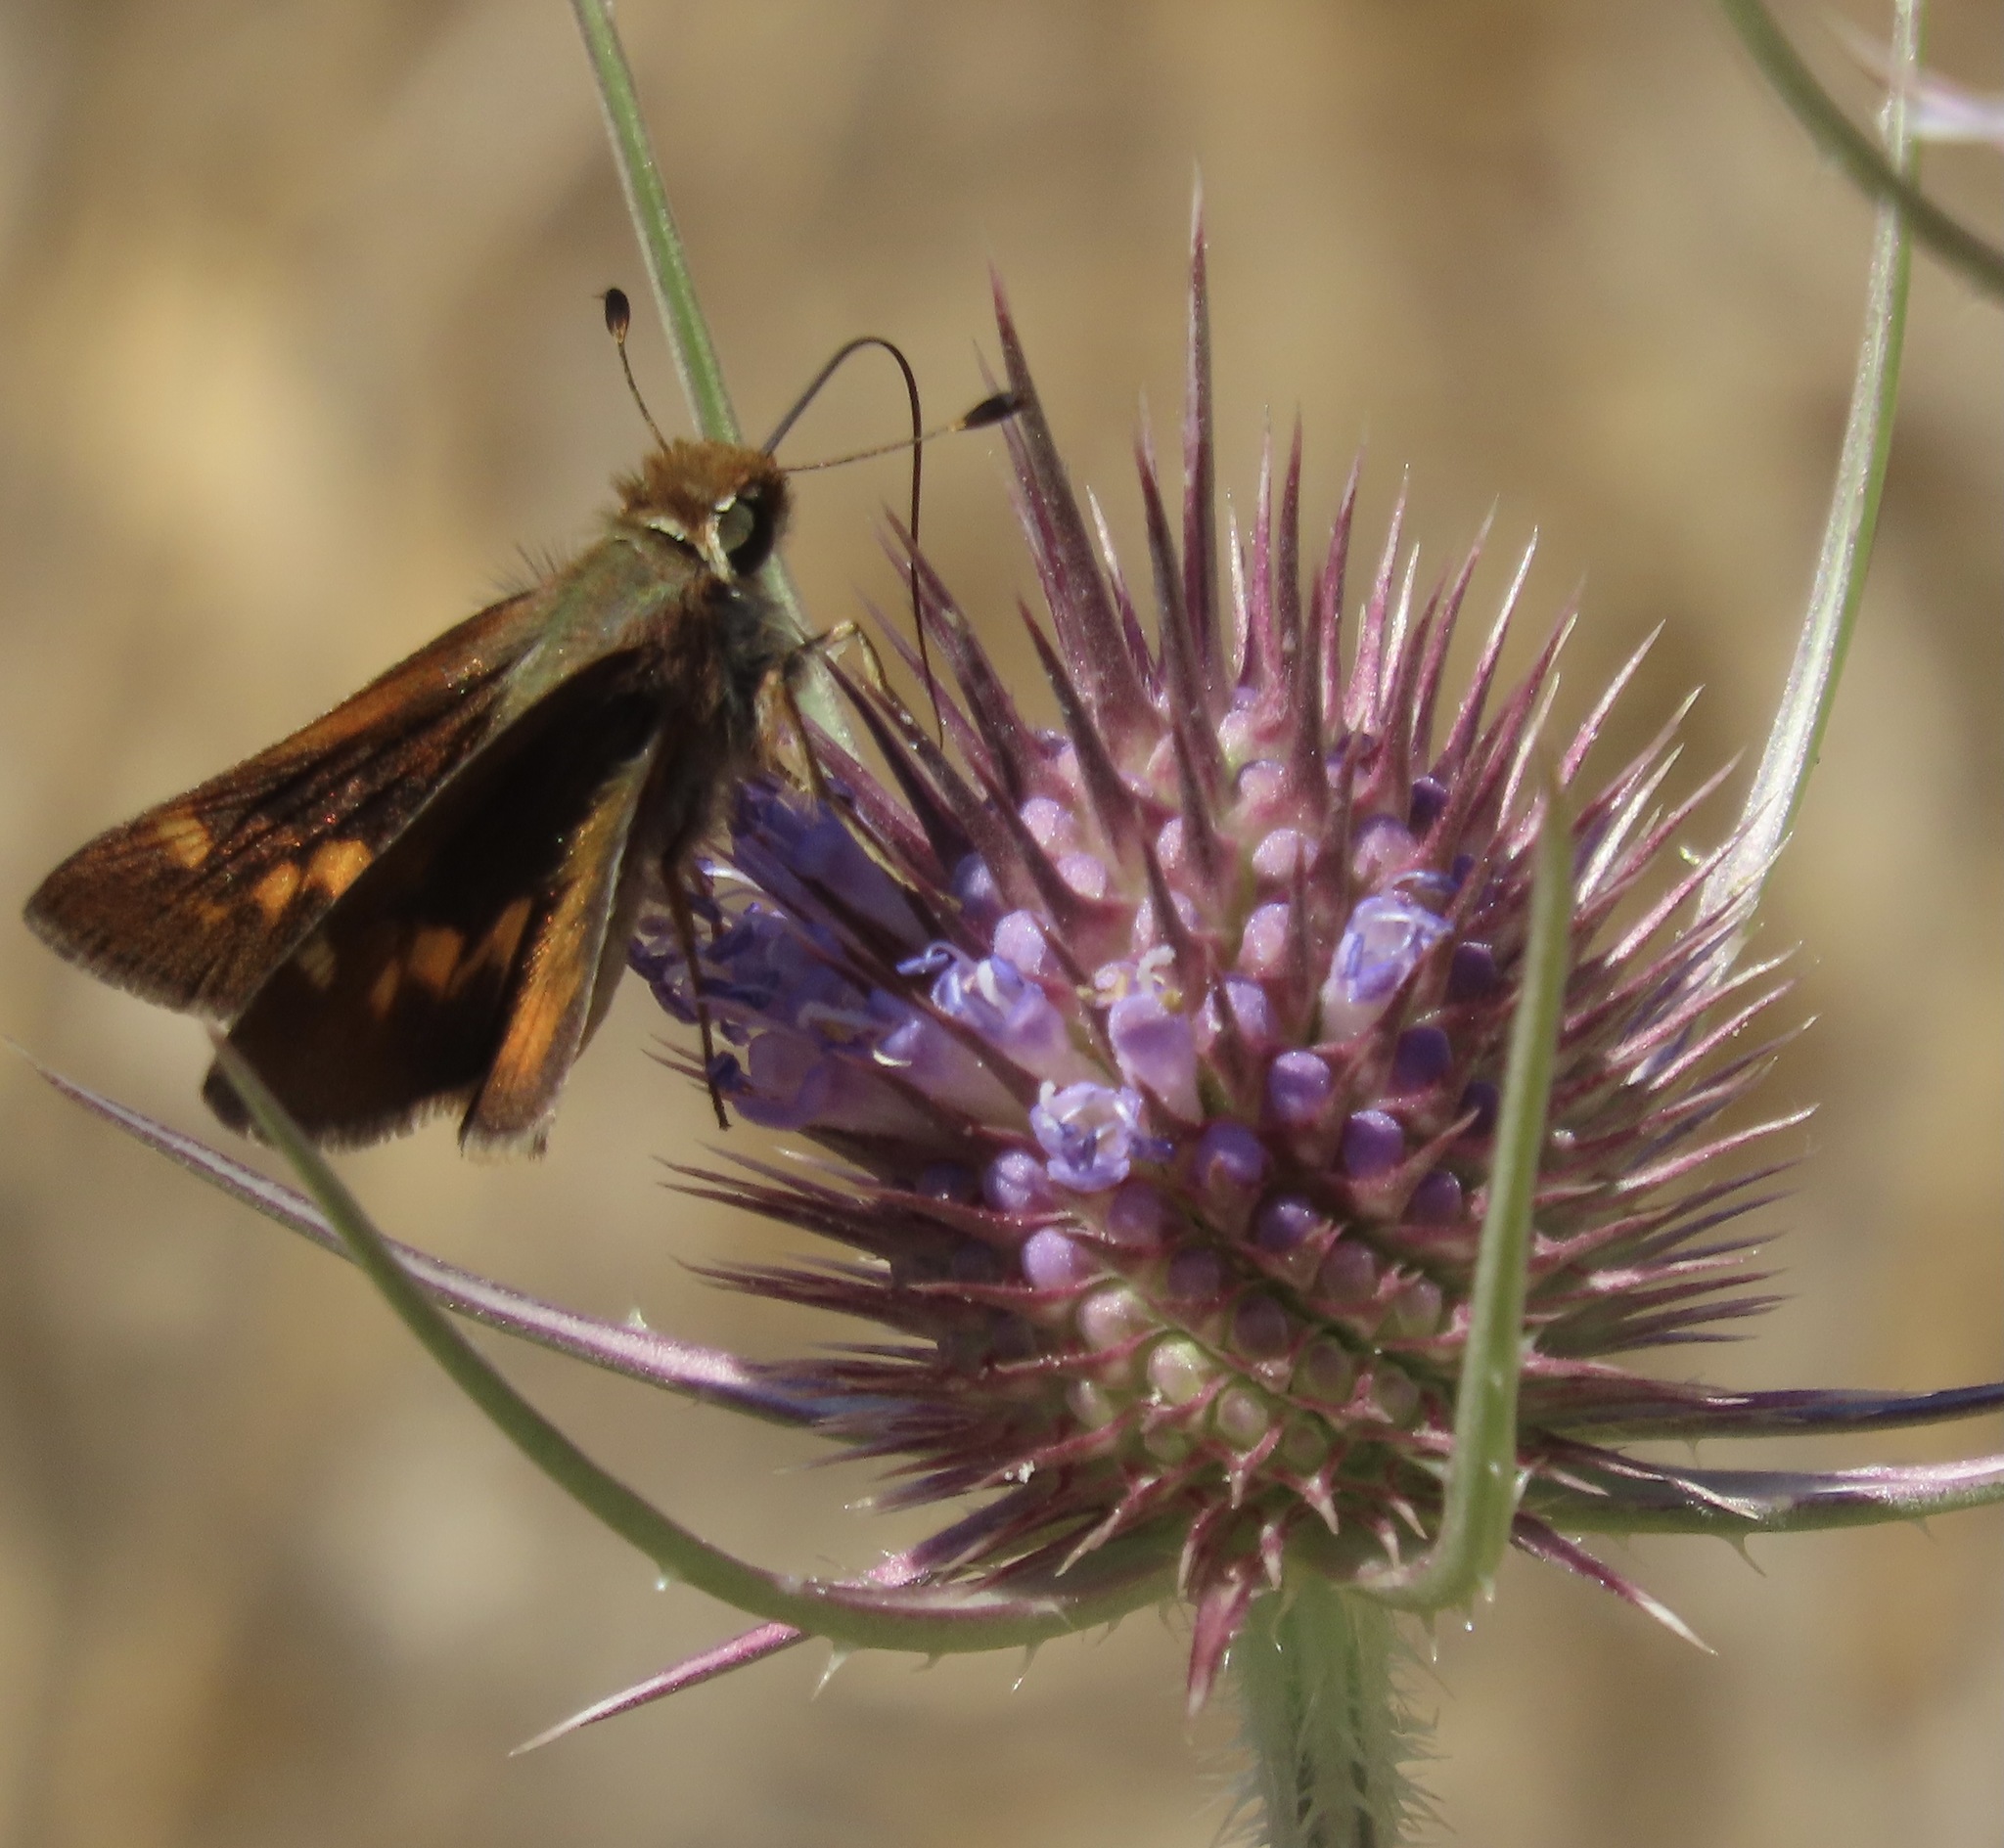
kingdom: Animalia
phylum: Arthropoda
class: Insecta
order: Lepidoptera
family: Hesperiidae
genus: Lon
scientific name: Lon melane
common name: Umber skipper
